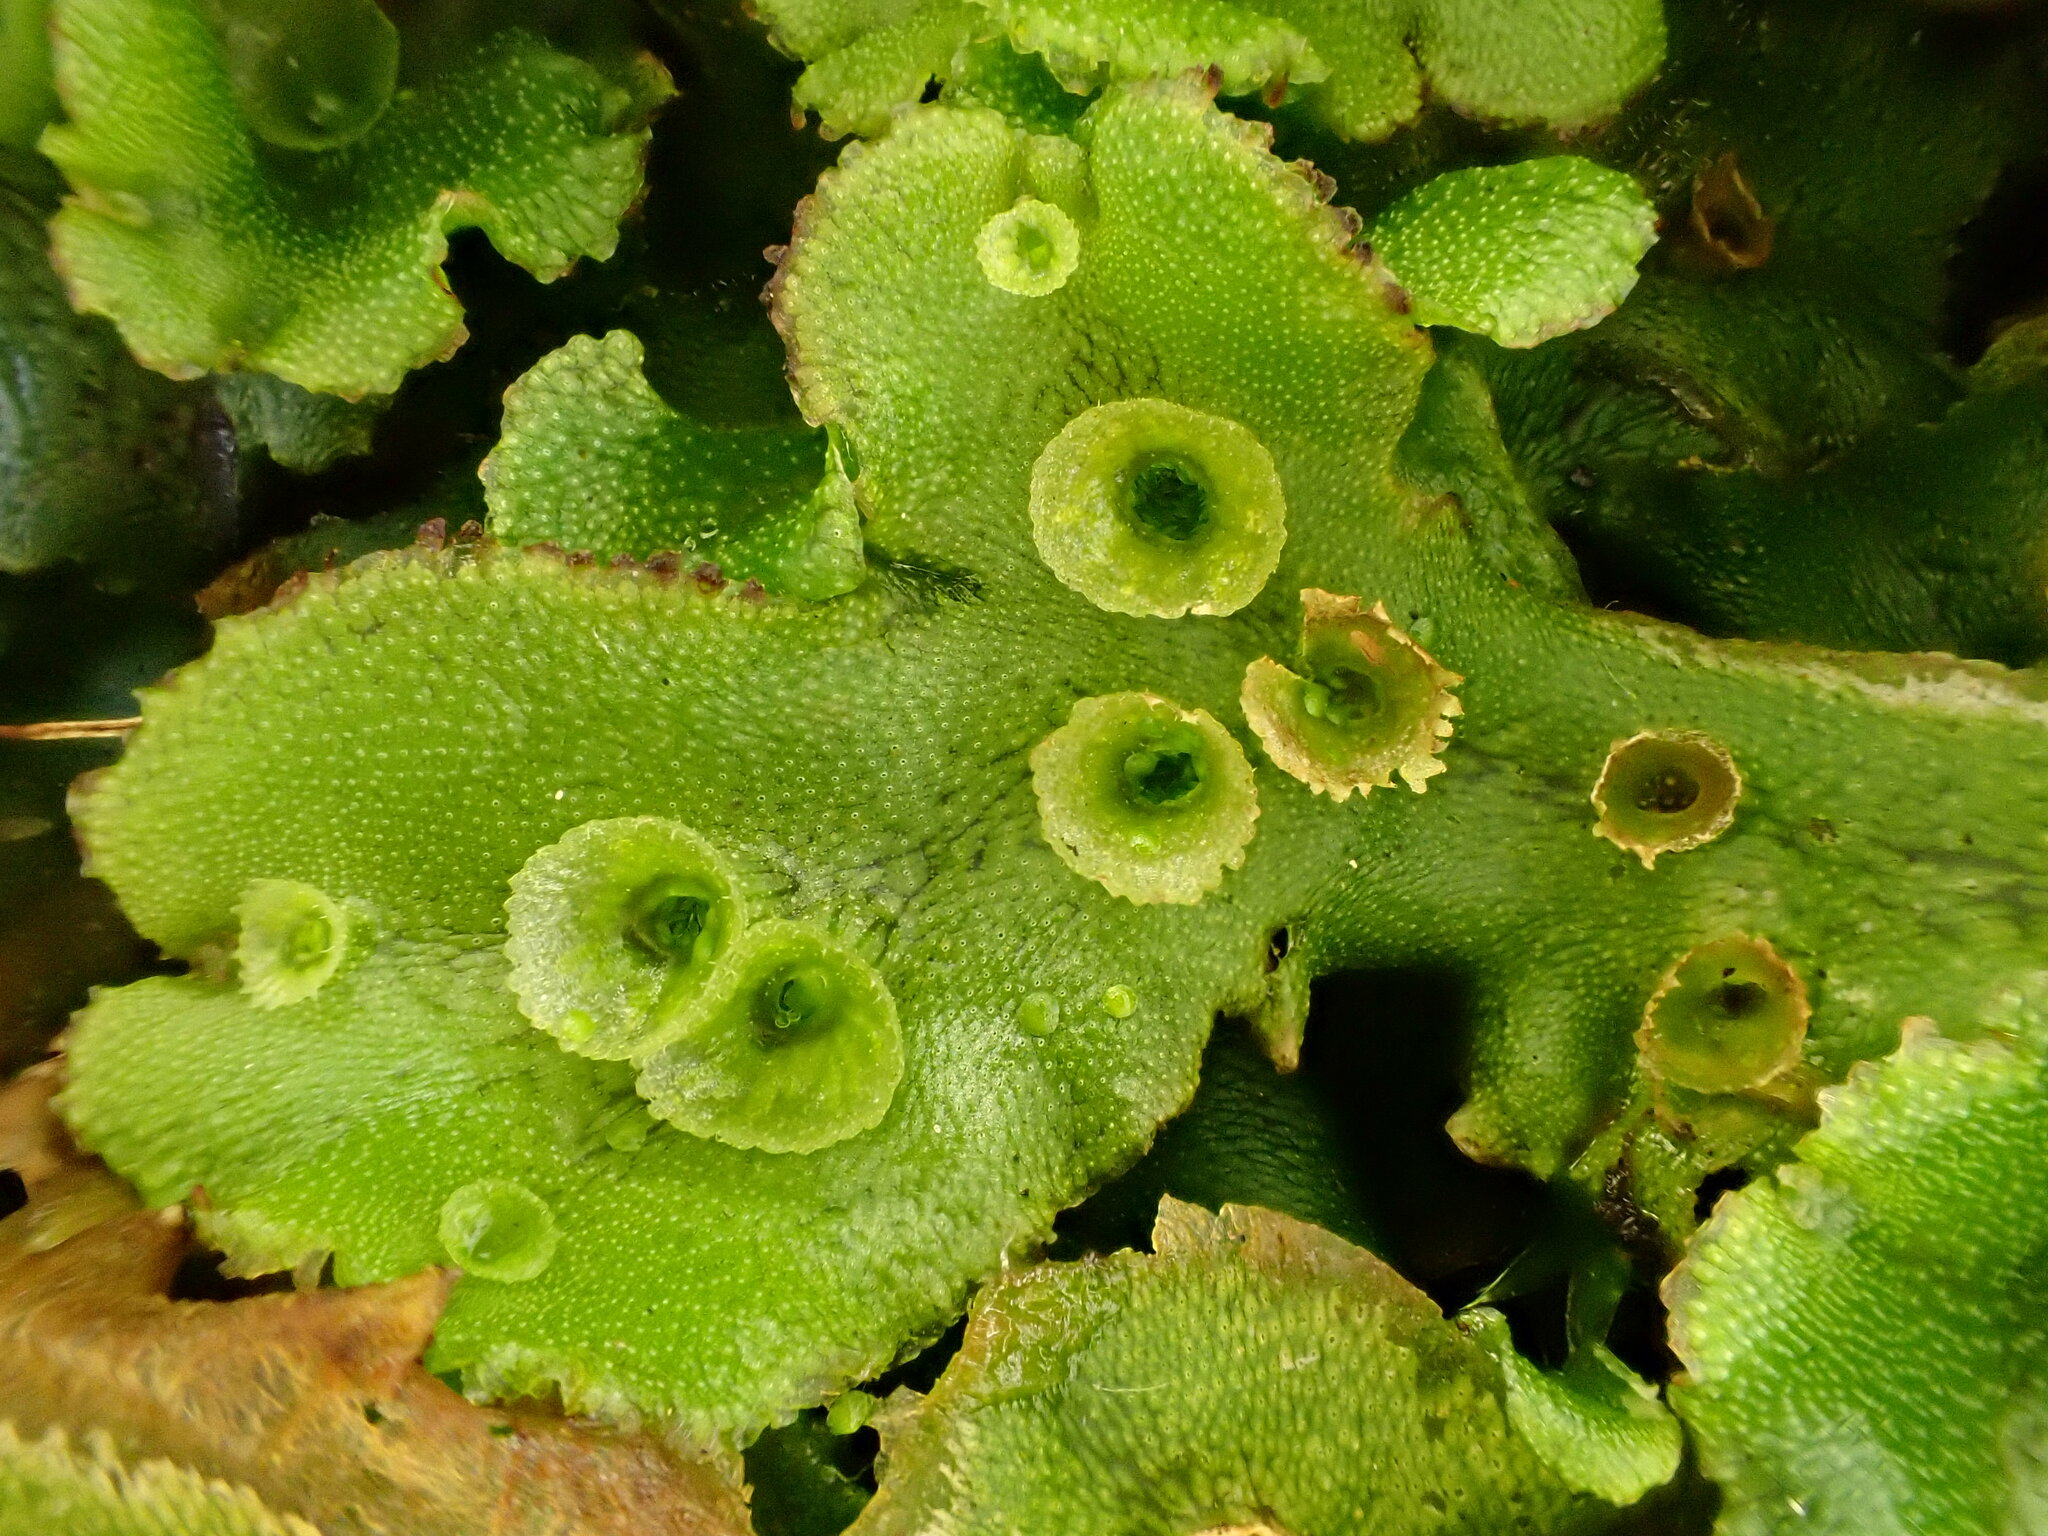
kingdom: Plantae
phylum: Marchantiophyta
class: Marchantiopsida
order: Marchantiales
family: Marchantiaceae
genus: Marchantia
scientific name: Marchantia polymorpha
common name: Common liverwort
